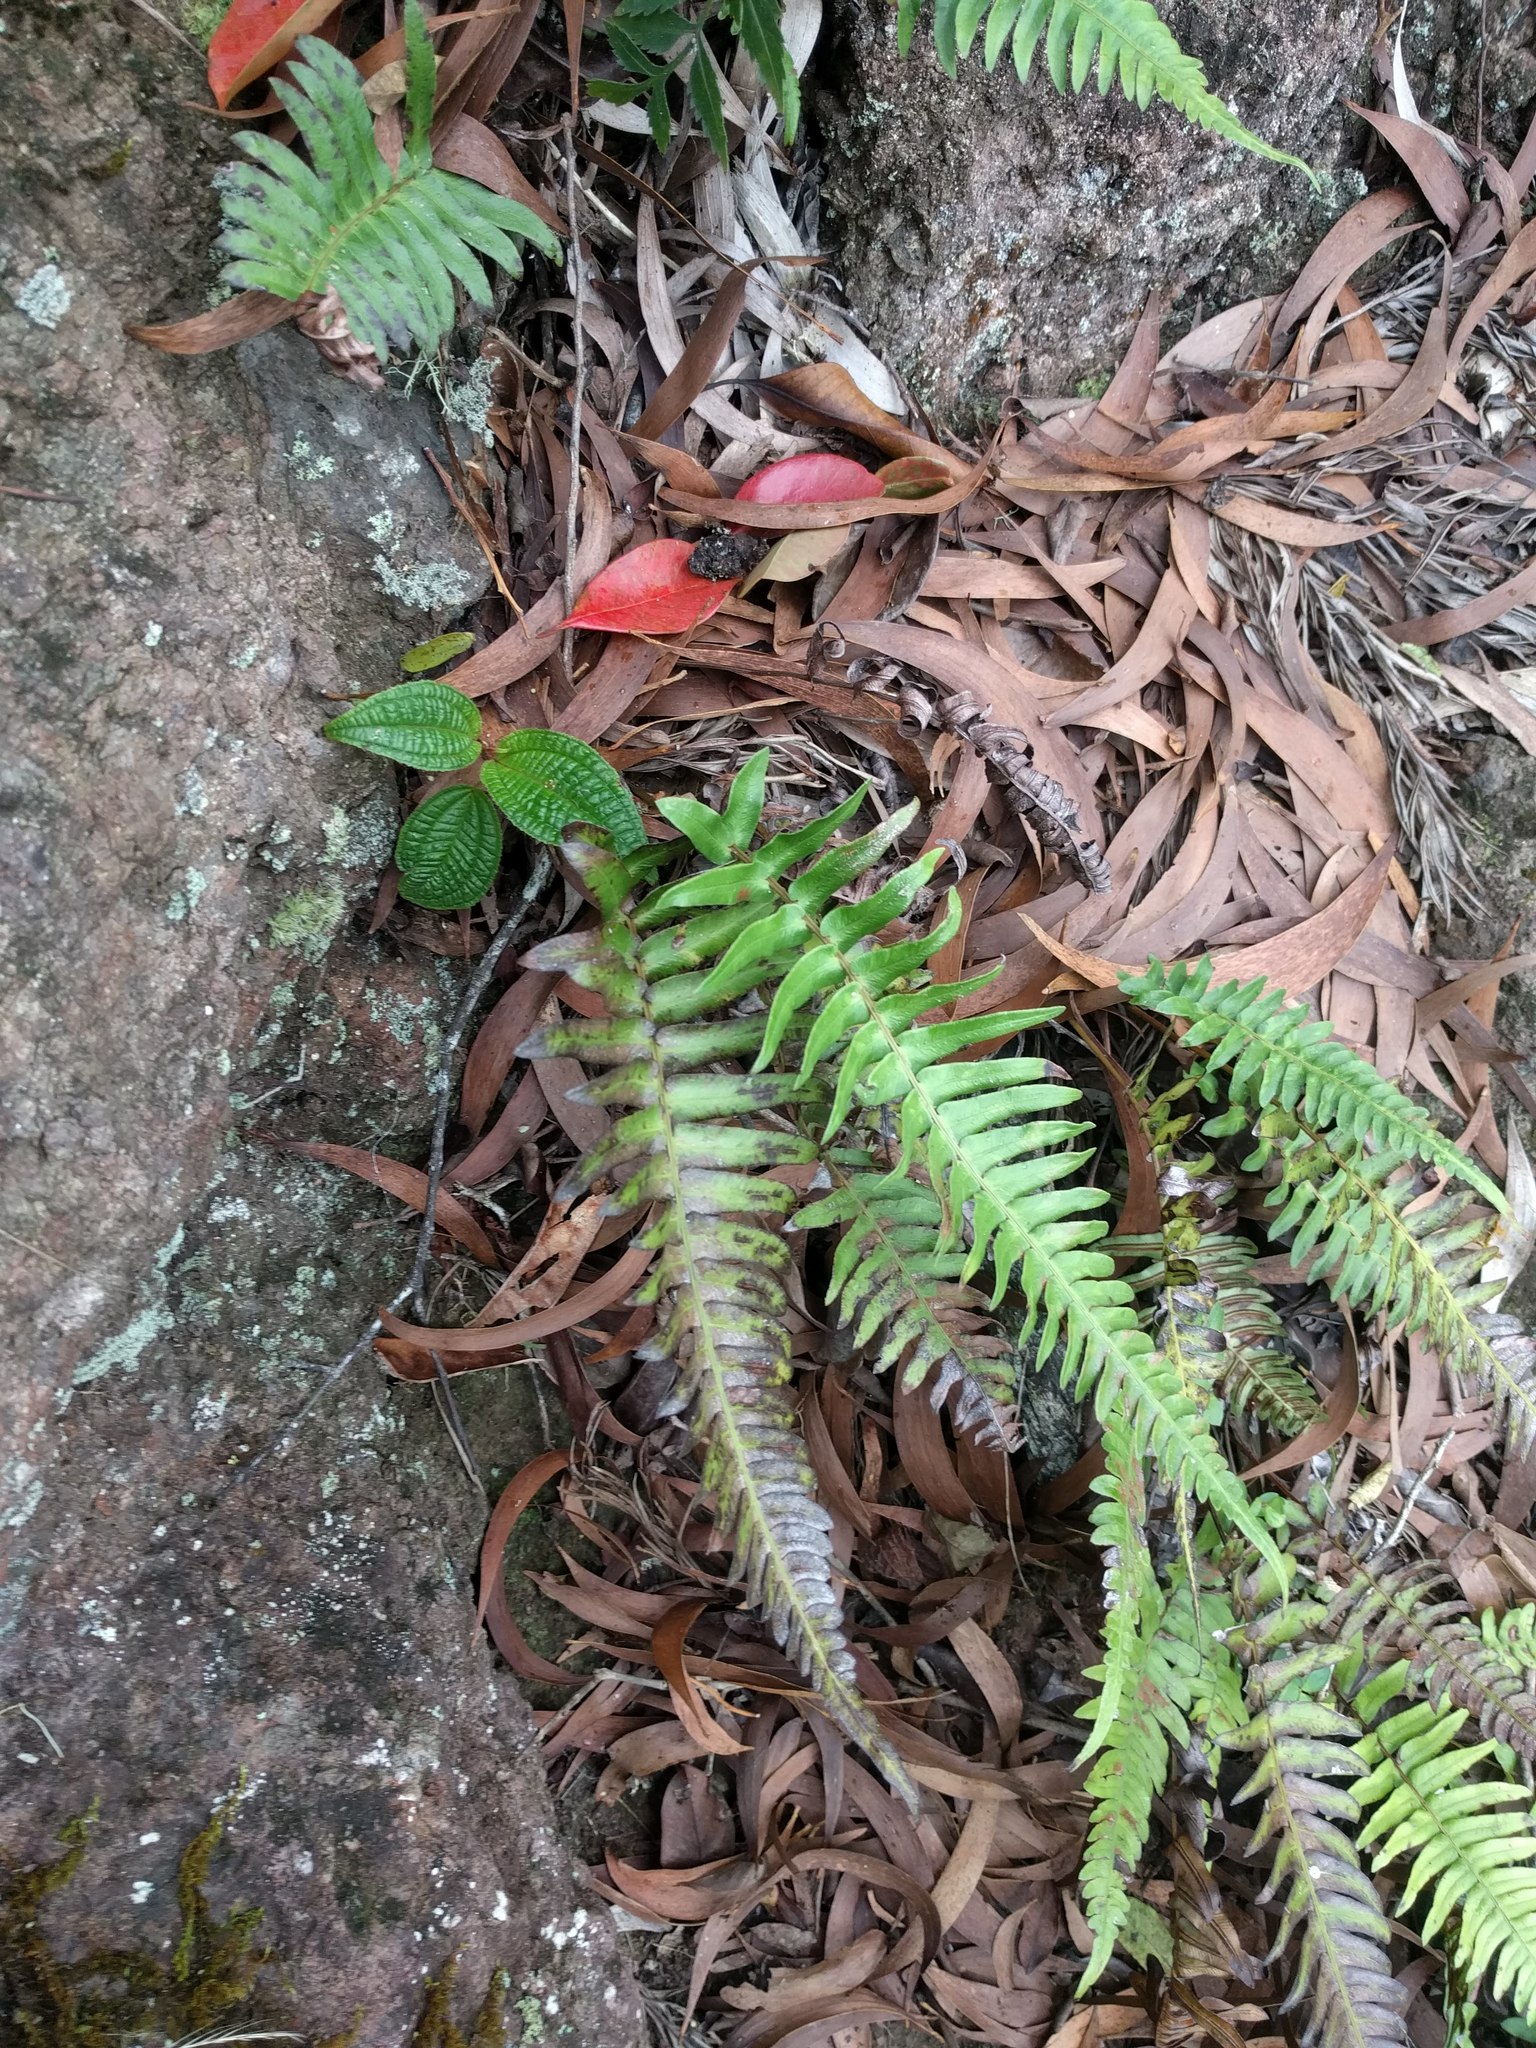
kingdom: Plantae
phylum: Tracheophyta
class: Polypodiopsida
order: Polypodiales
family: Blechnaceae
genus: Blechnum
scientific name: Blechnum appendiculatum
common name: Palm fern
